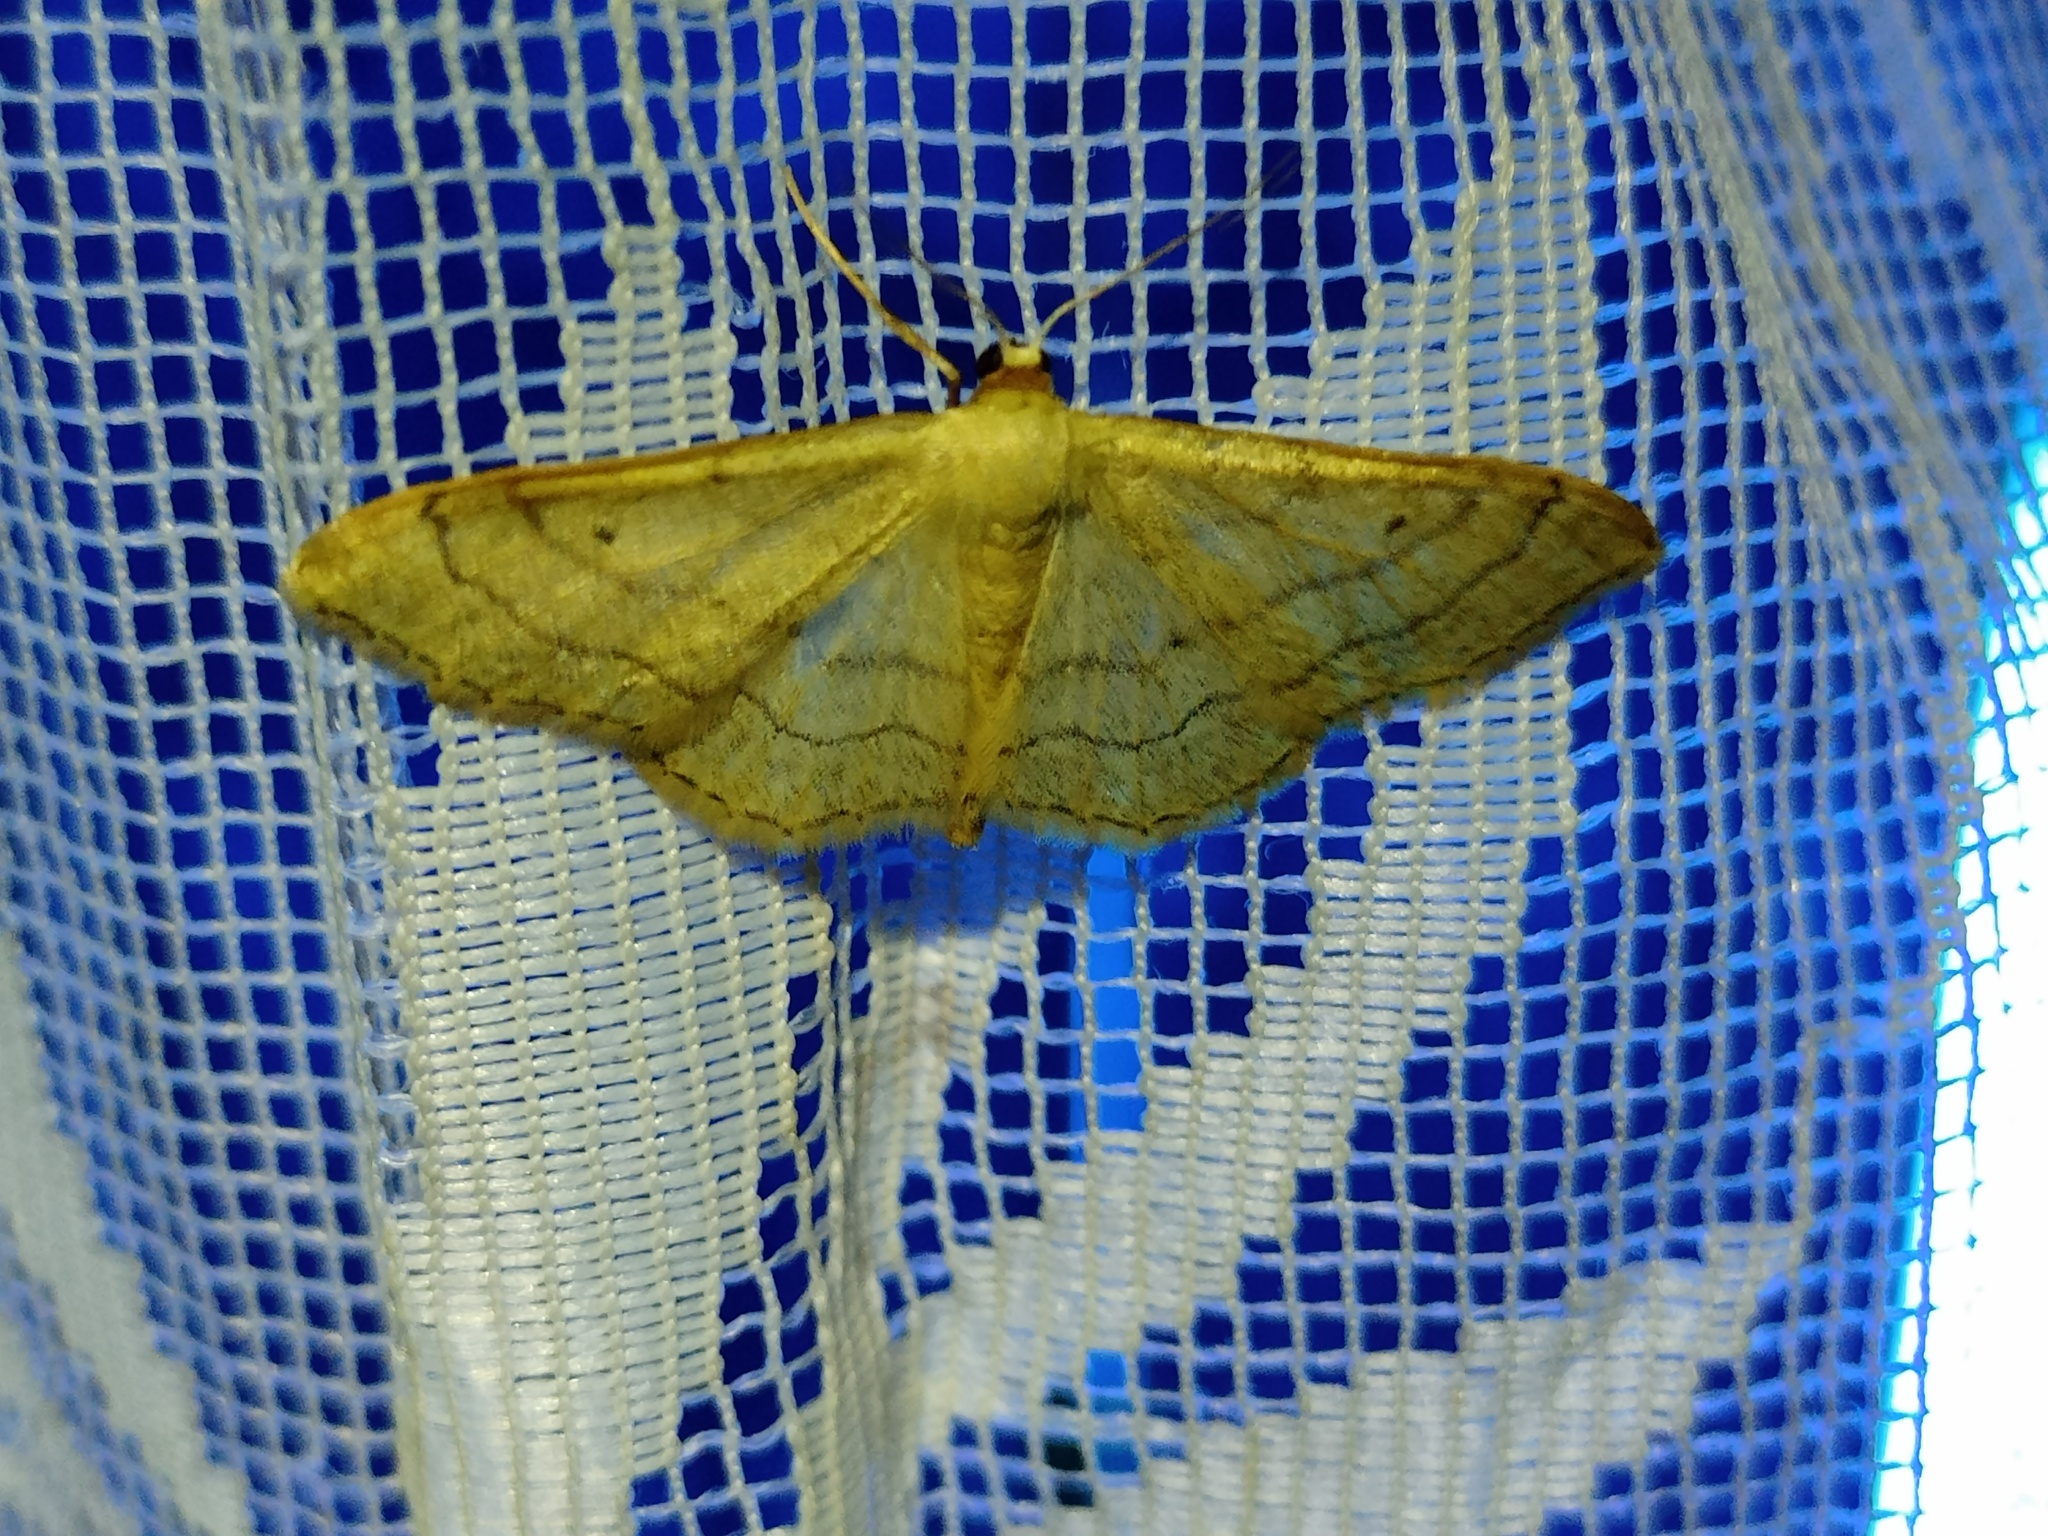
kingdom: Animalia
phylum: Arthropoda
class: Insecta
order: Lepidoptera
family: Geometridae
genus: Idaea
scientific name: Idaea aversata
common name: Riband wave
